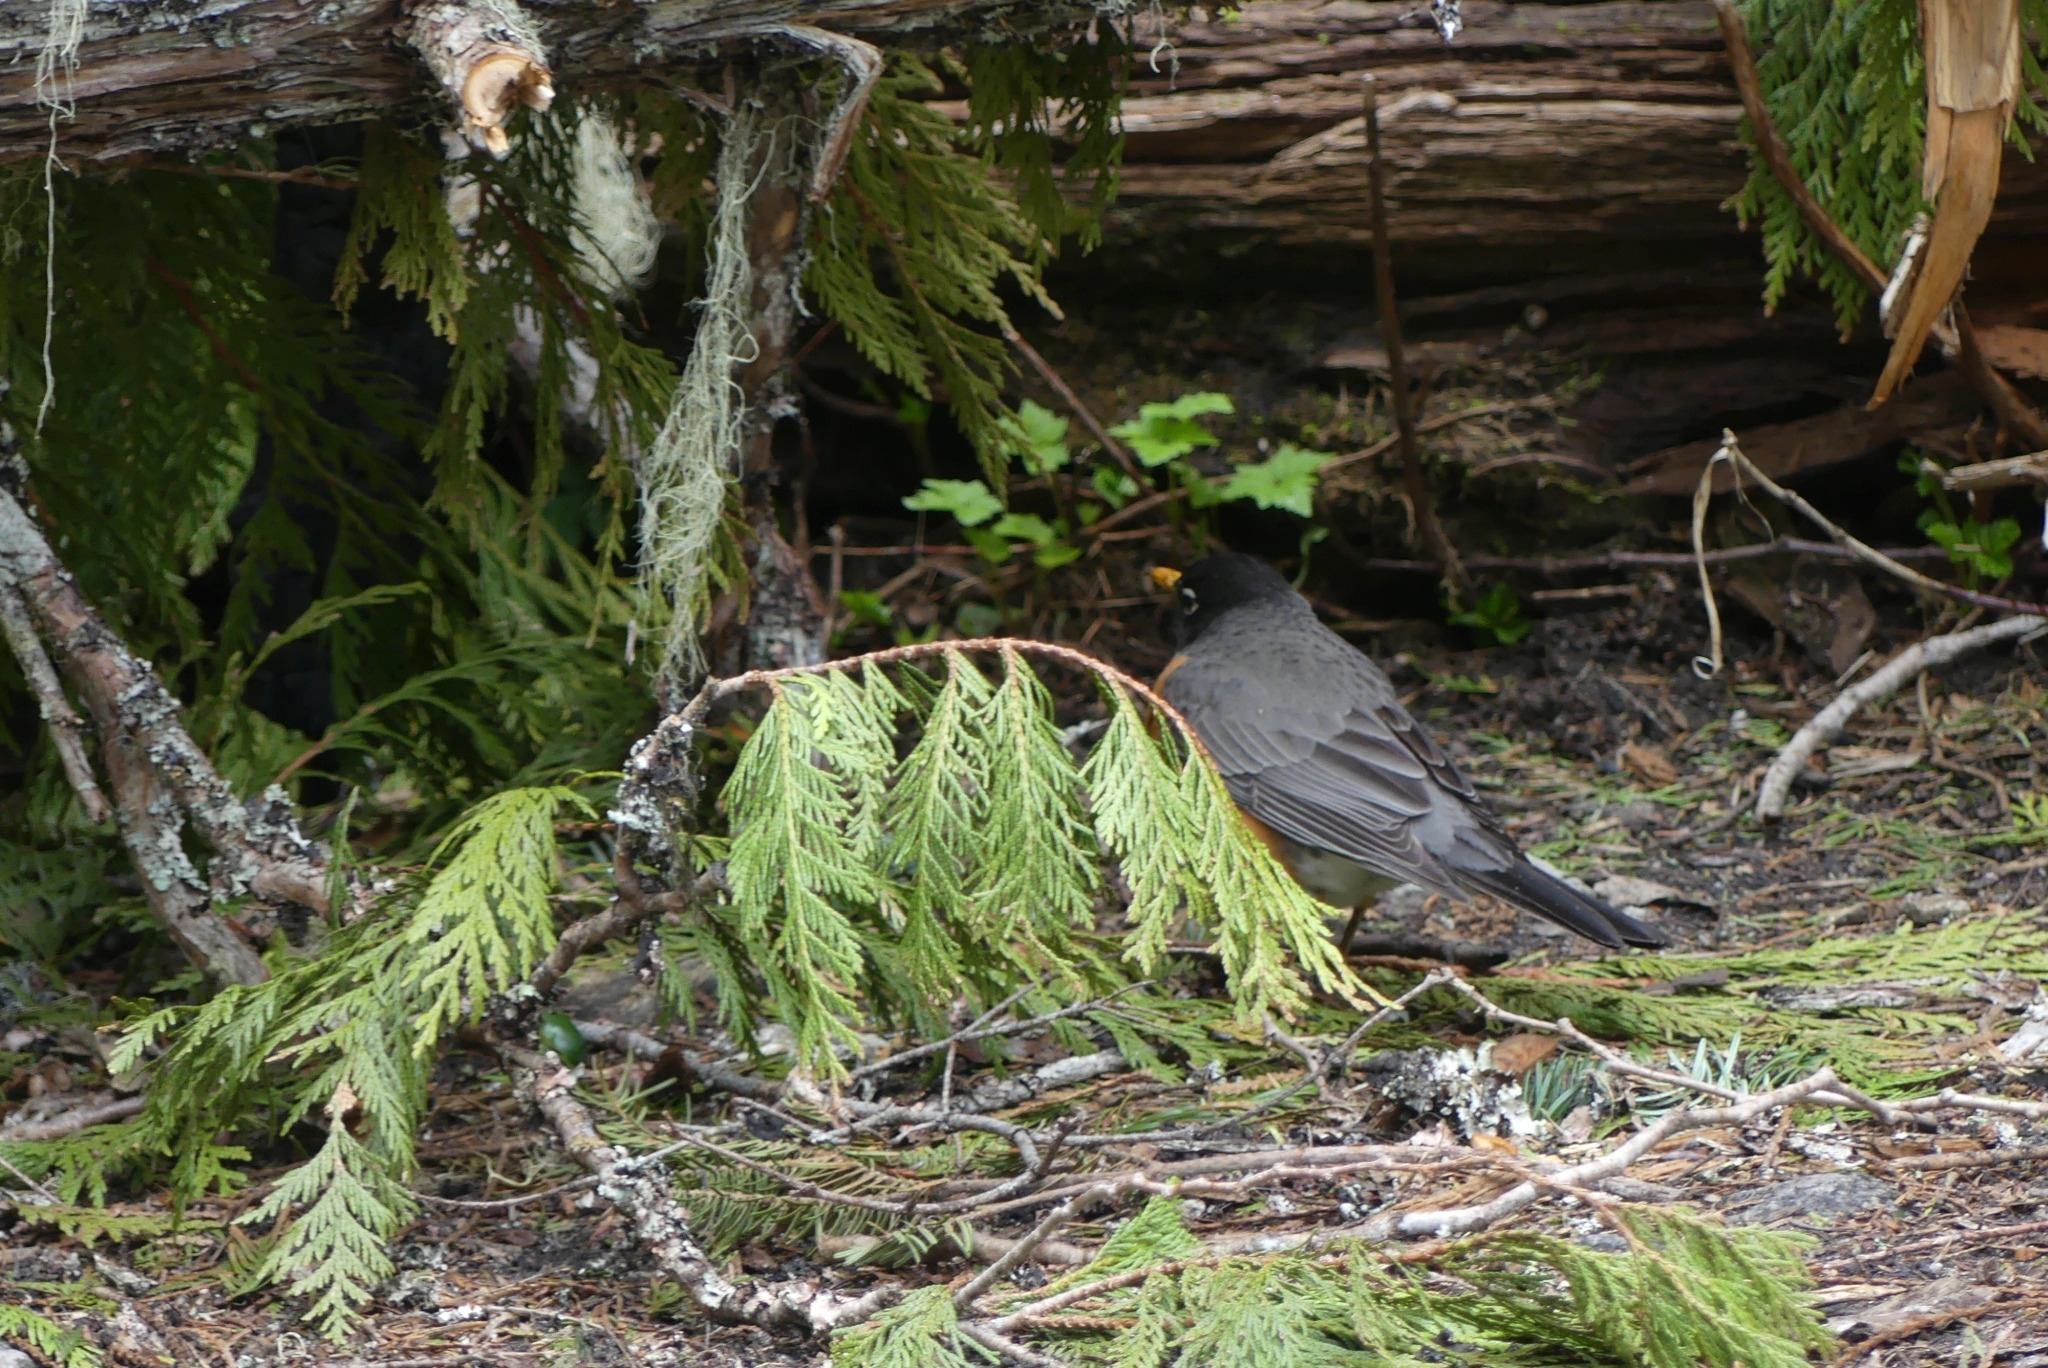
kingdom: Animalia
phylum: Chordata
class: Aves
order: Passeriformes
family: Turdidae
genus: Turdus
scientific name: Turdus migratorius
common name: American robin
